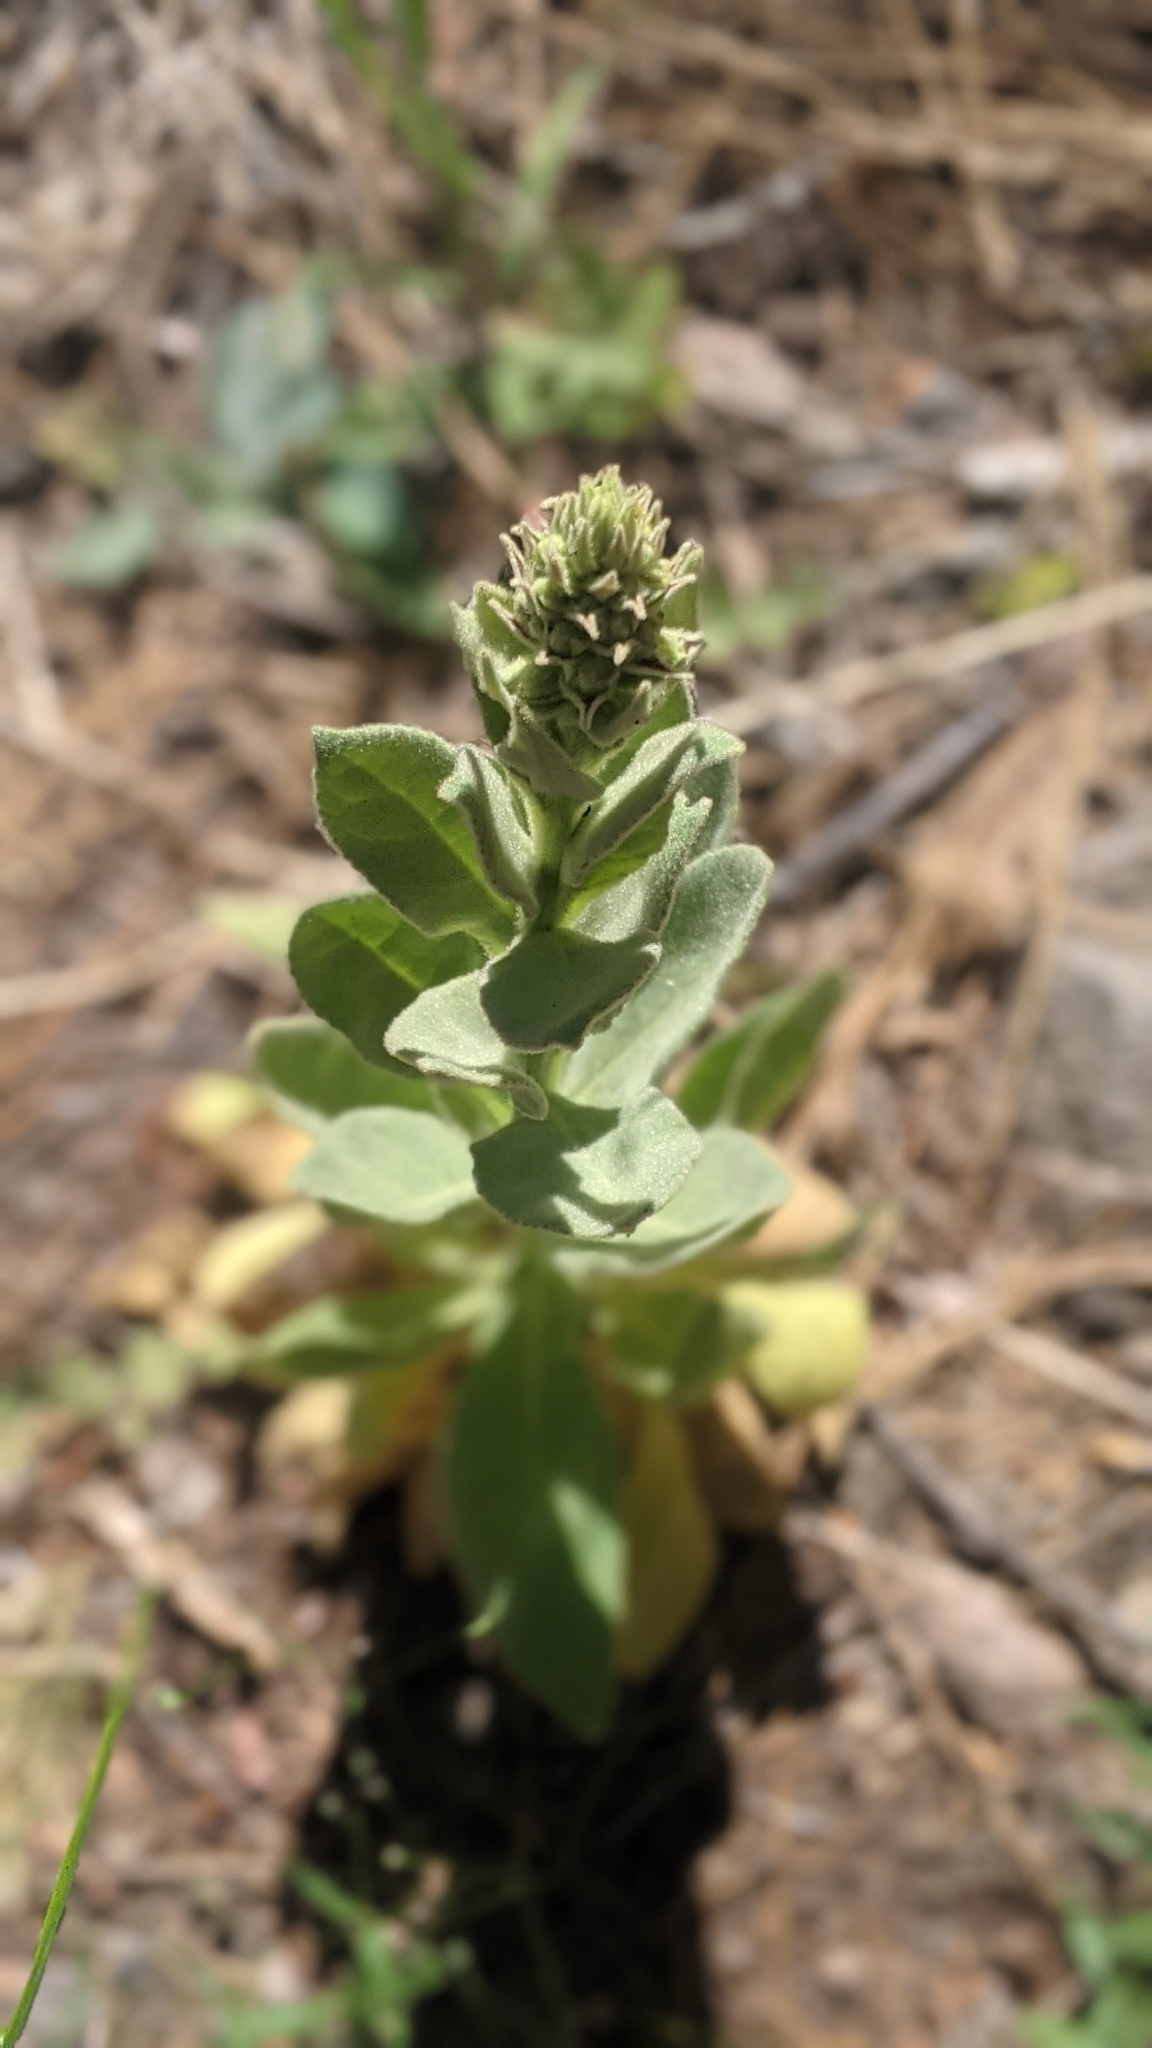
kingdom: Plantae
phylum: Tracheophyta
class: Magnoliopsida
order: Lamiales
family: Scrophulariaceae
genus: Verbascum
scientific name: Verbascum thapsus
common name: Common mullein
